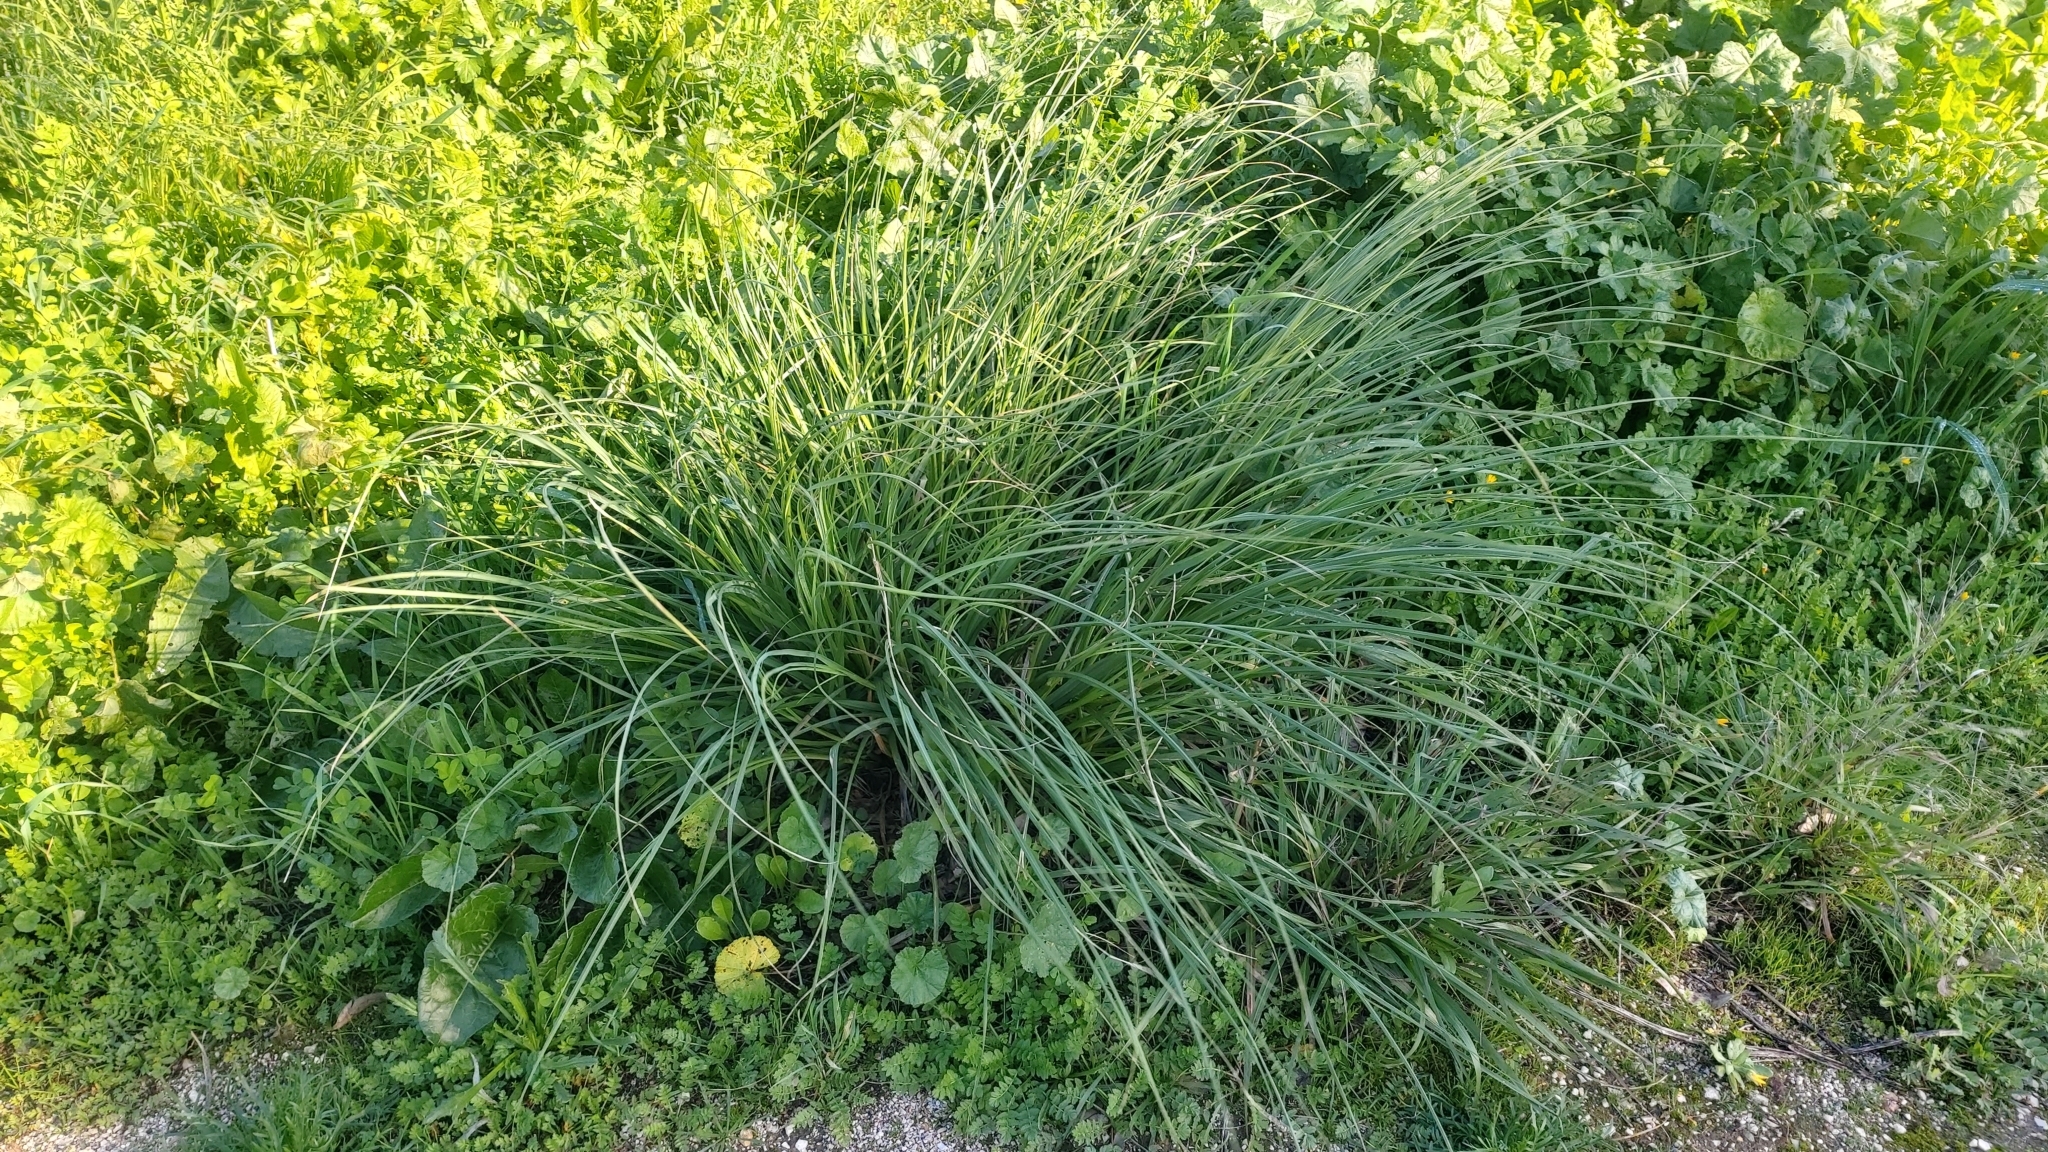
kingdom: Plantae
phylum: Tracheophyta
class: Liliopsida
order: Poales
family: Poaceae
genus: Cortaderia
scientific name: Cortaderia selloana
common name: Uruguayan pampas grass
